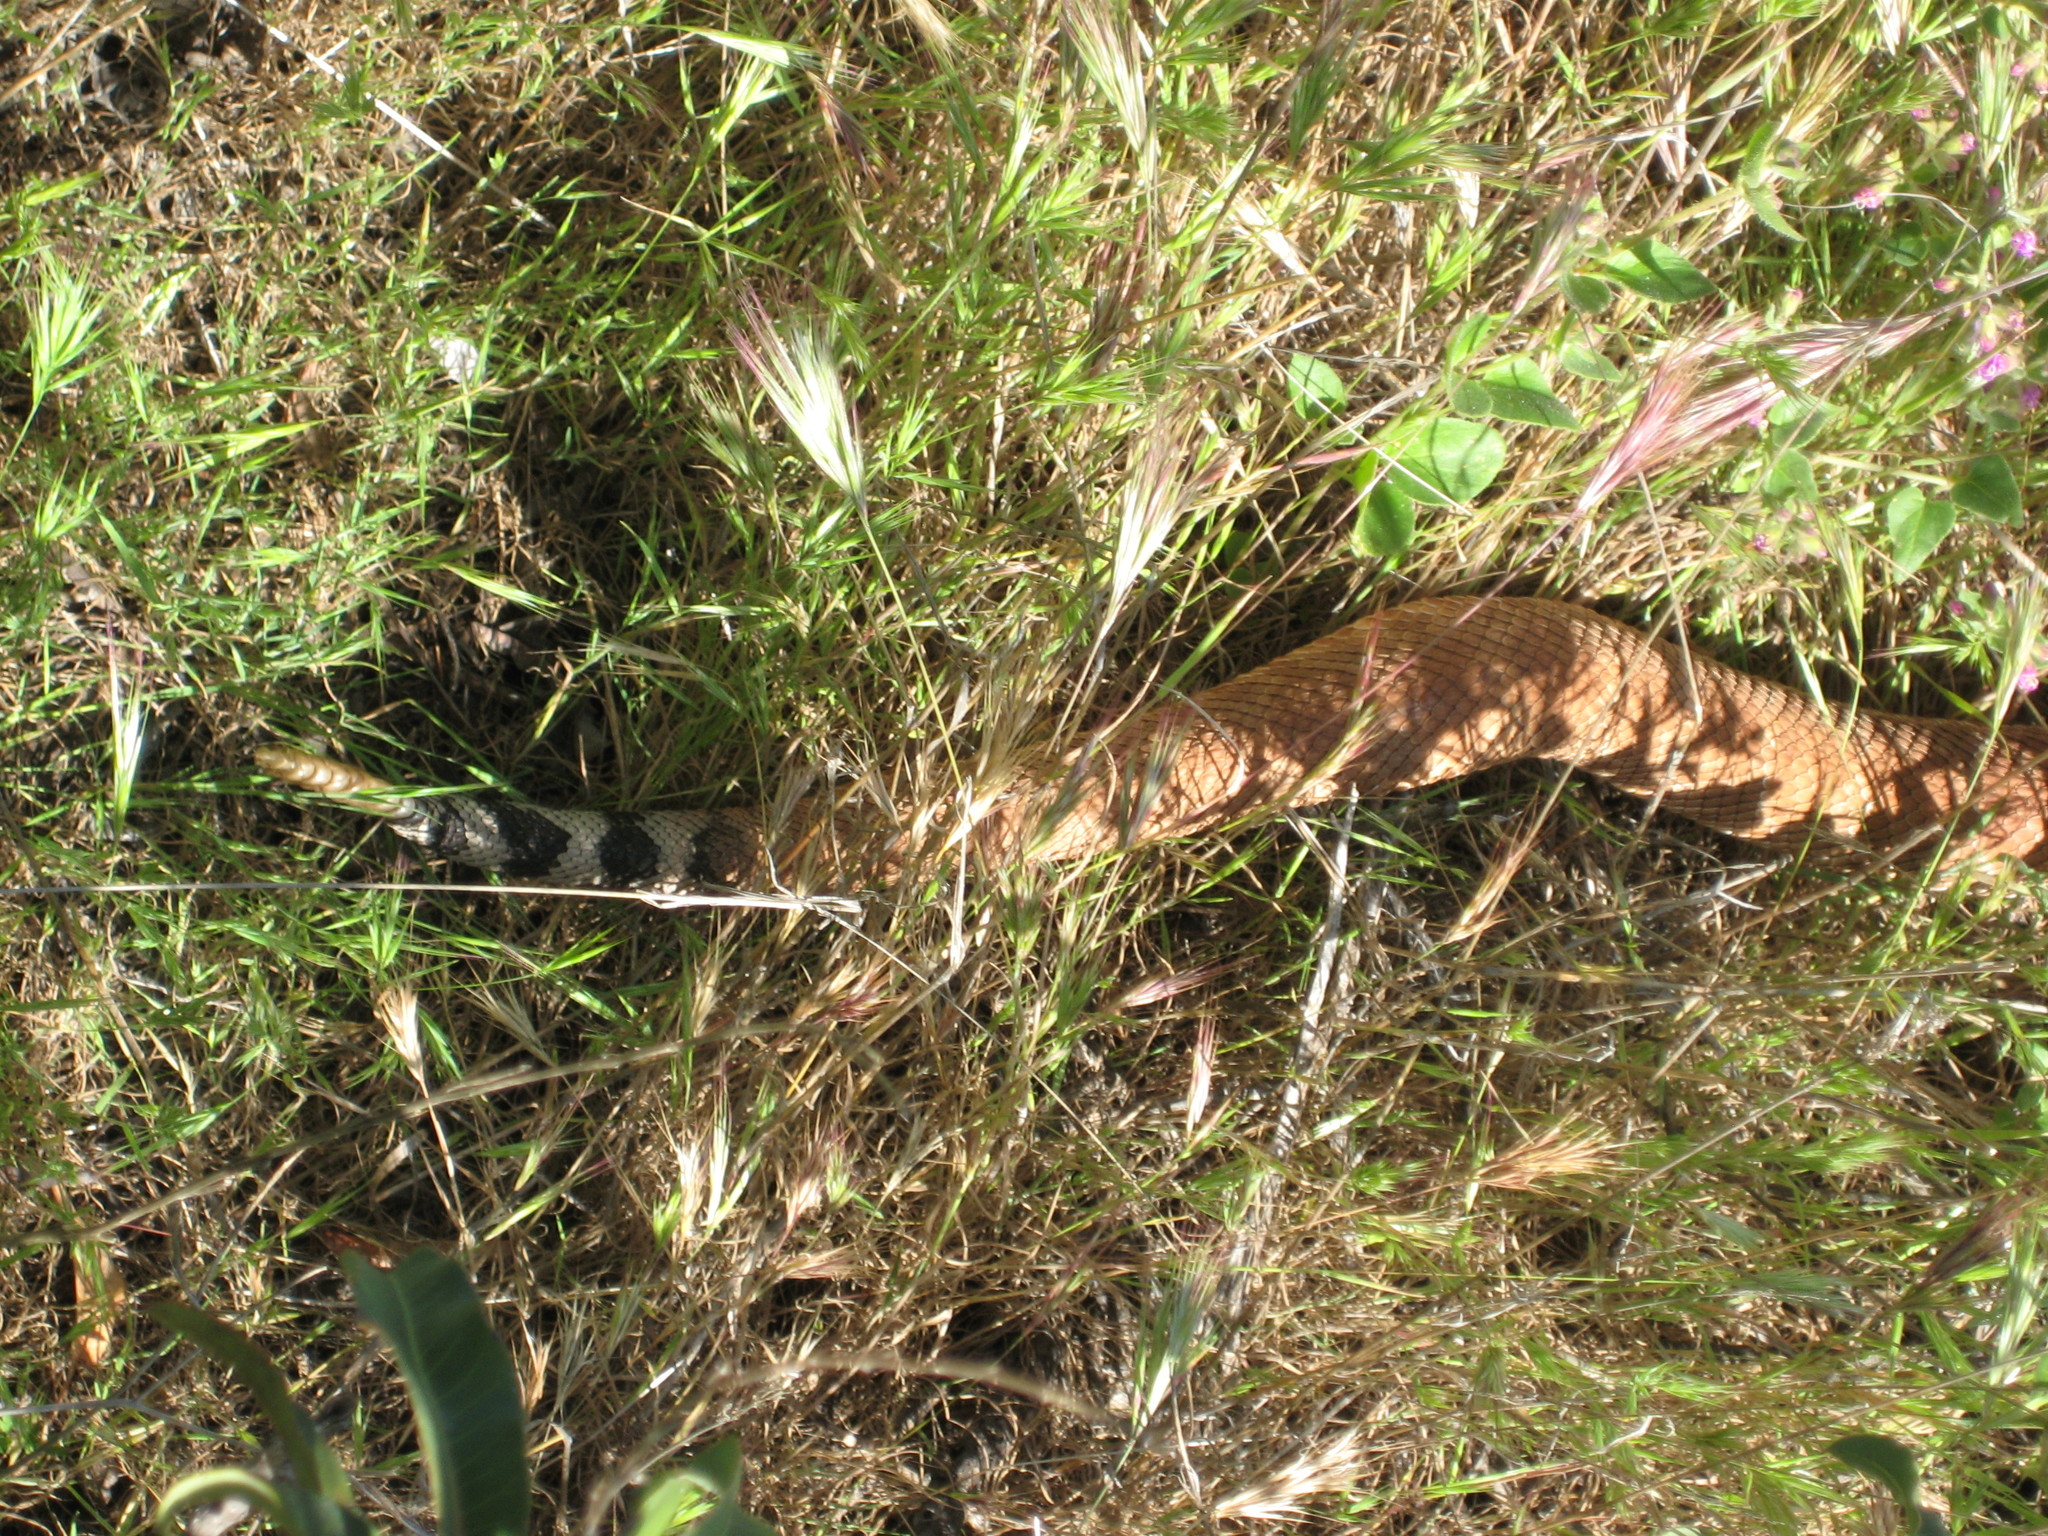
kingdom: Animalia
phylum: Chordata
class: Squamata
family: Viperidae
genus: Crotalus
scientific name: Crotalus ruber
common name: Red diamond rattlesnake
